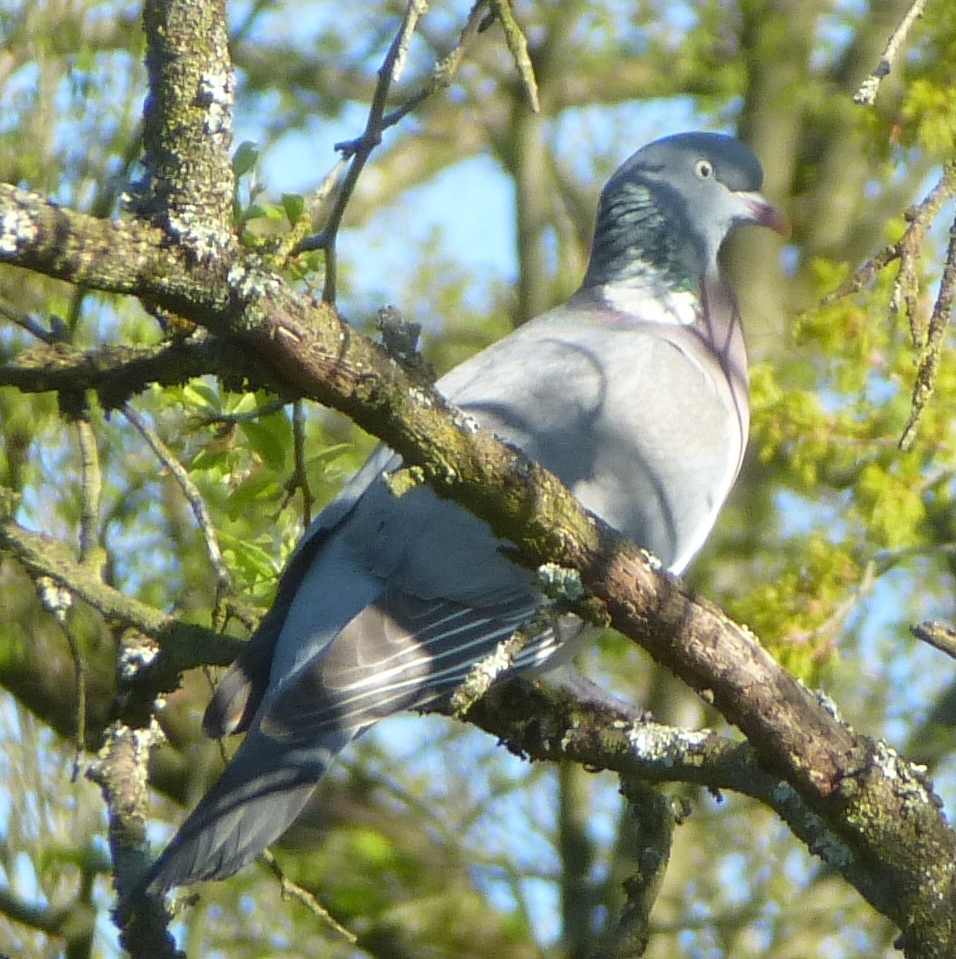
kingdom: Animalia
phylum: Chordata
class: Aves
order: Columbiformes
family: Columbidae
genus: Columba
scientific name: Columba palumbus
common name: Common wood pigeon
